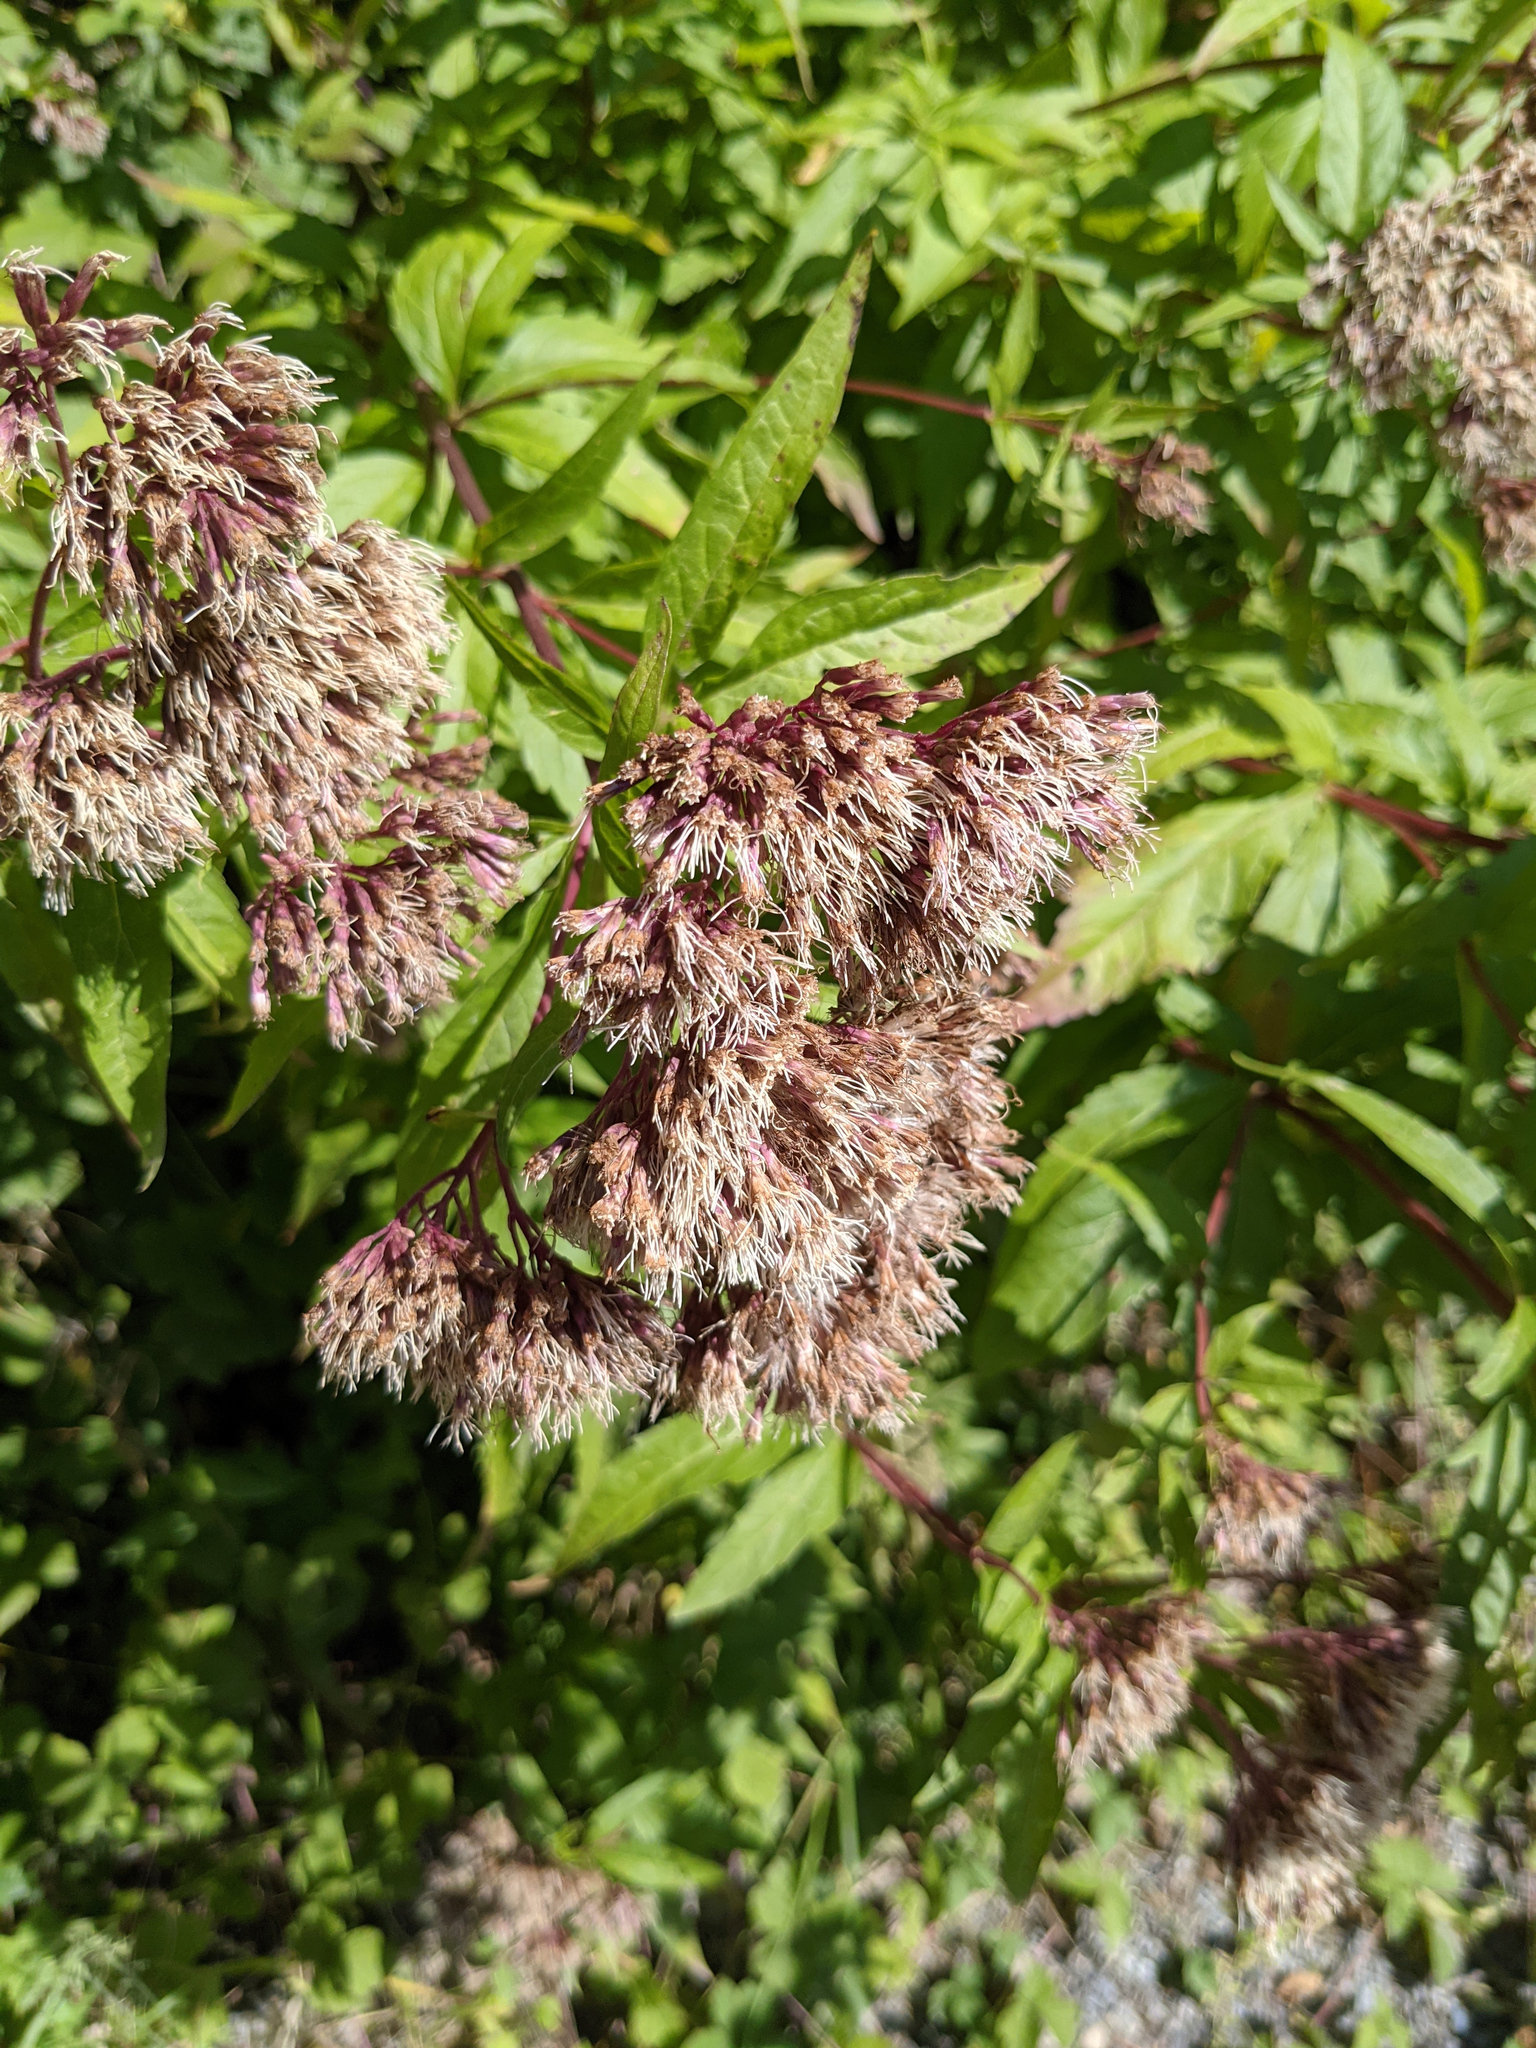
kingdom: Plantae
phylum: Tracheophyta
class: Magnoliopsida
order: Asterales
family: Asteraceae
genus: Eupatorium
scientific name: Eupatorium cannabinum
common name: Hemp-agrimony
